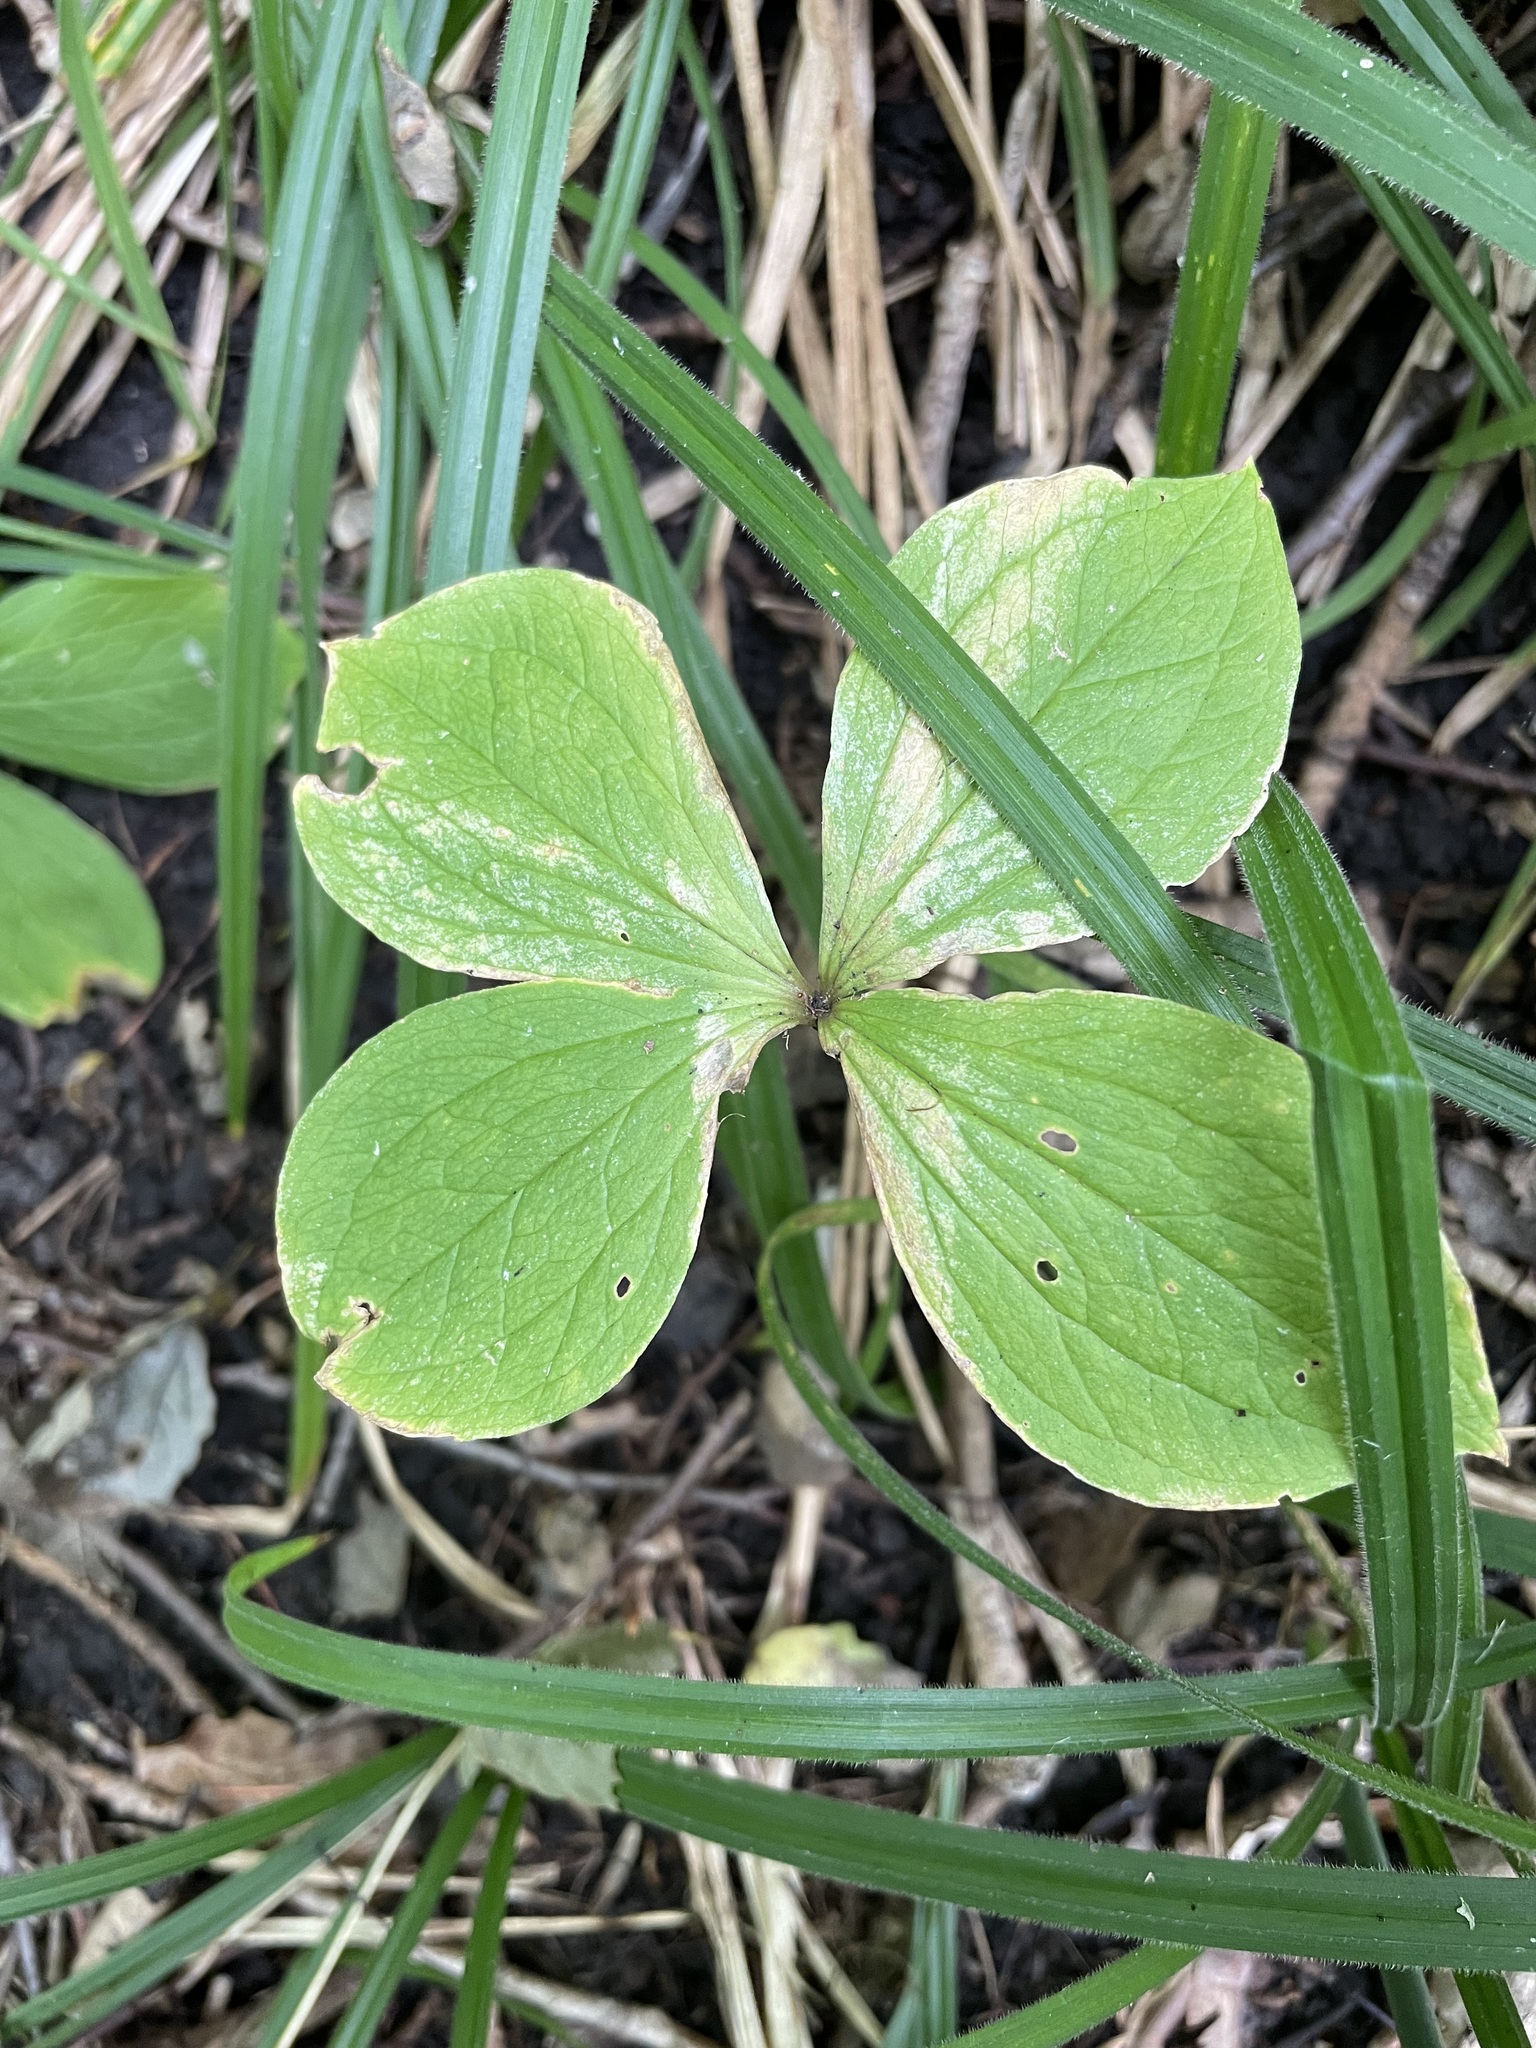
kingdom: Plantae
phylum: Tracheophyta
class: Liliopsida
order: Liliales
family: Melanthiaceae
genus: Paris
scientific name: Paris quadrifolia
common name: Herb-paris
